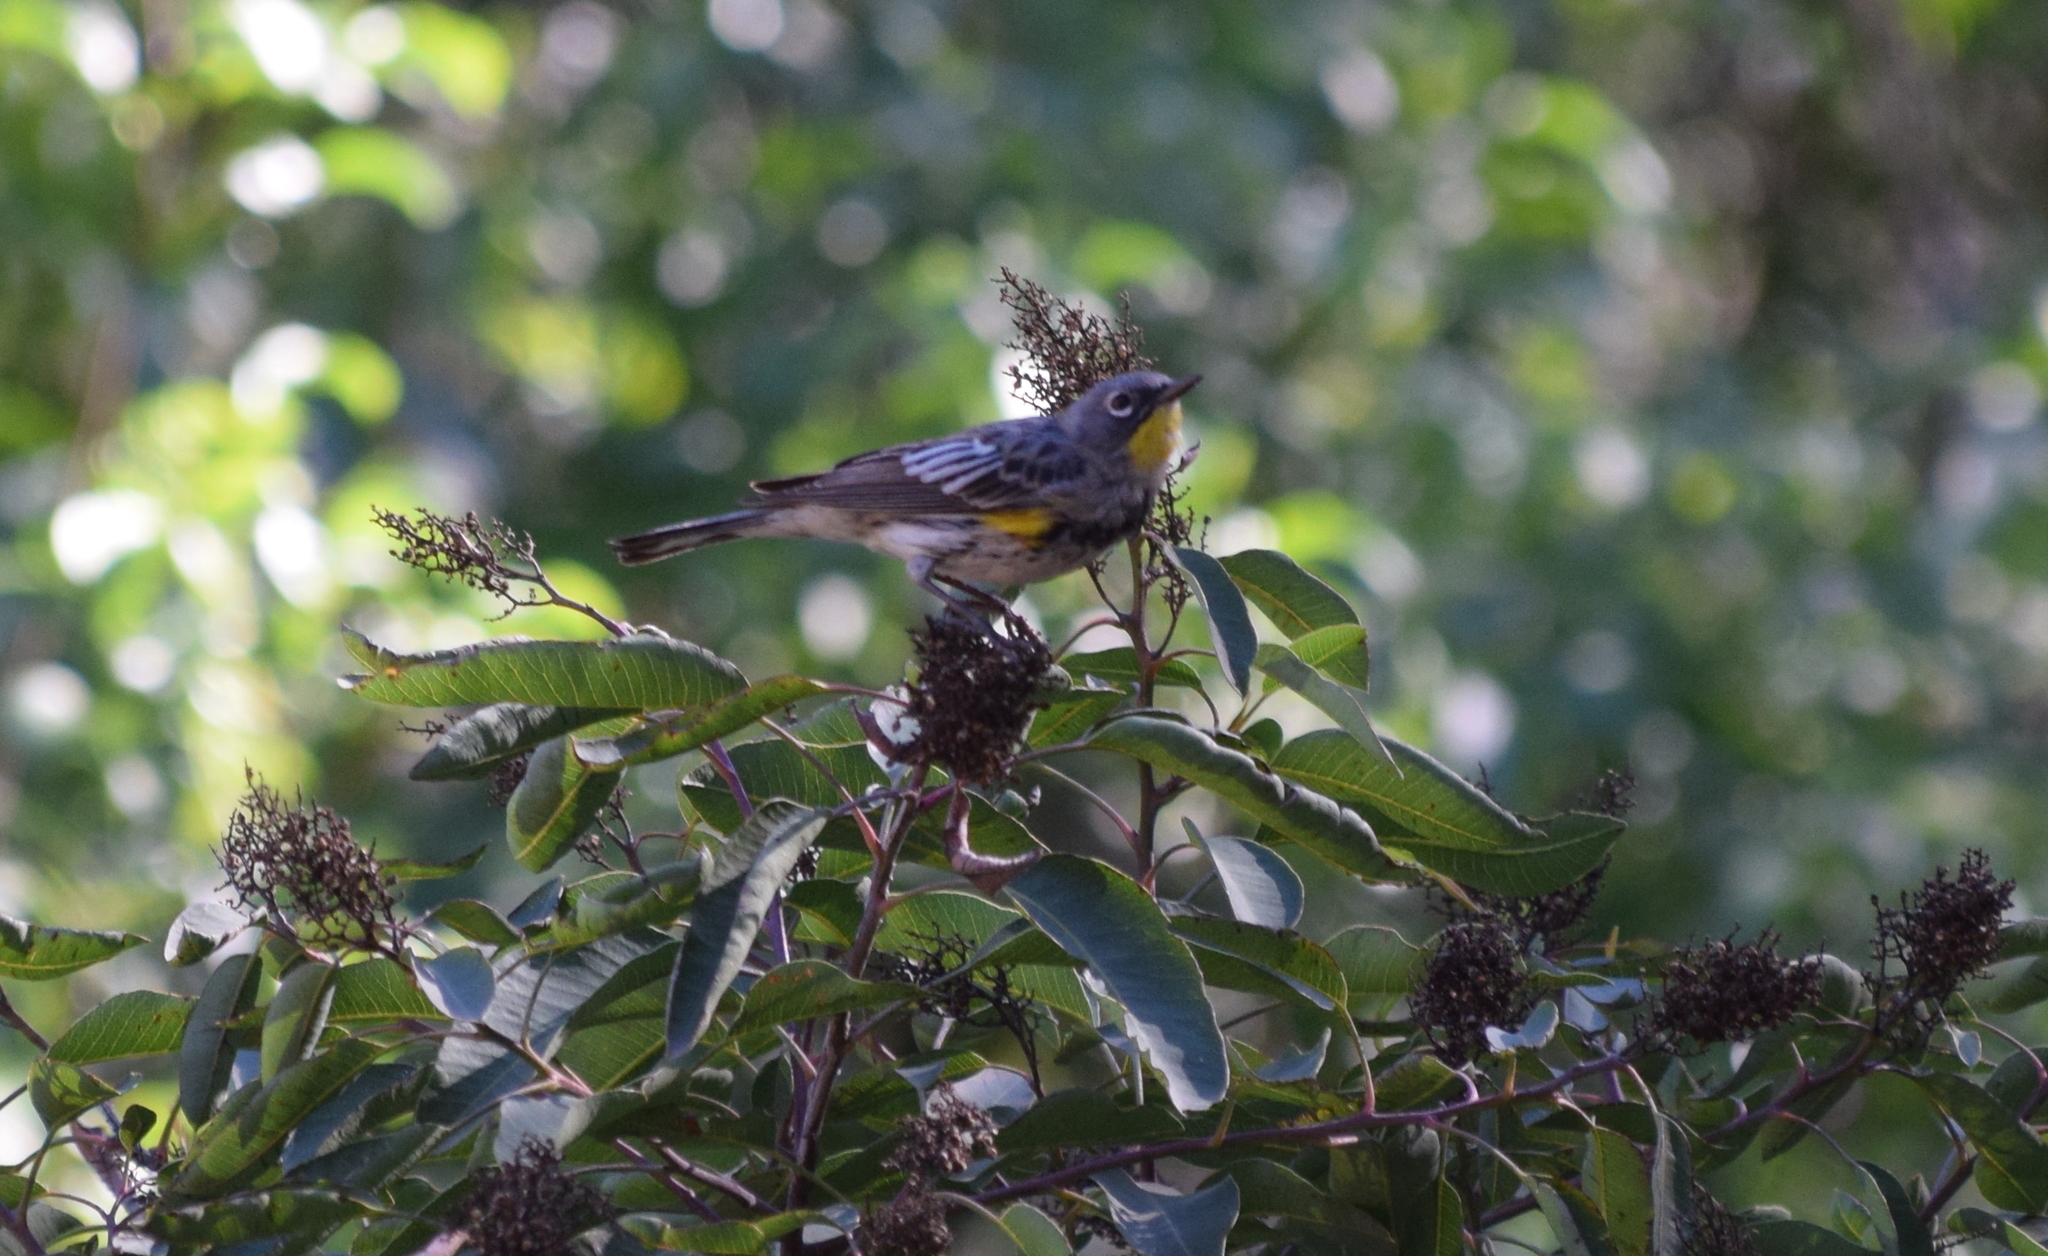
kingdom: Animalia
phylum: Chordata
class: Aves
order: Passeriformes
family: Parulidae
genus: Setophaga
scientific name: Setophaga coronata
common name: Myrtle warbler
